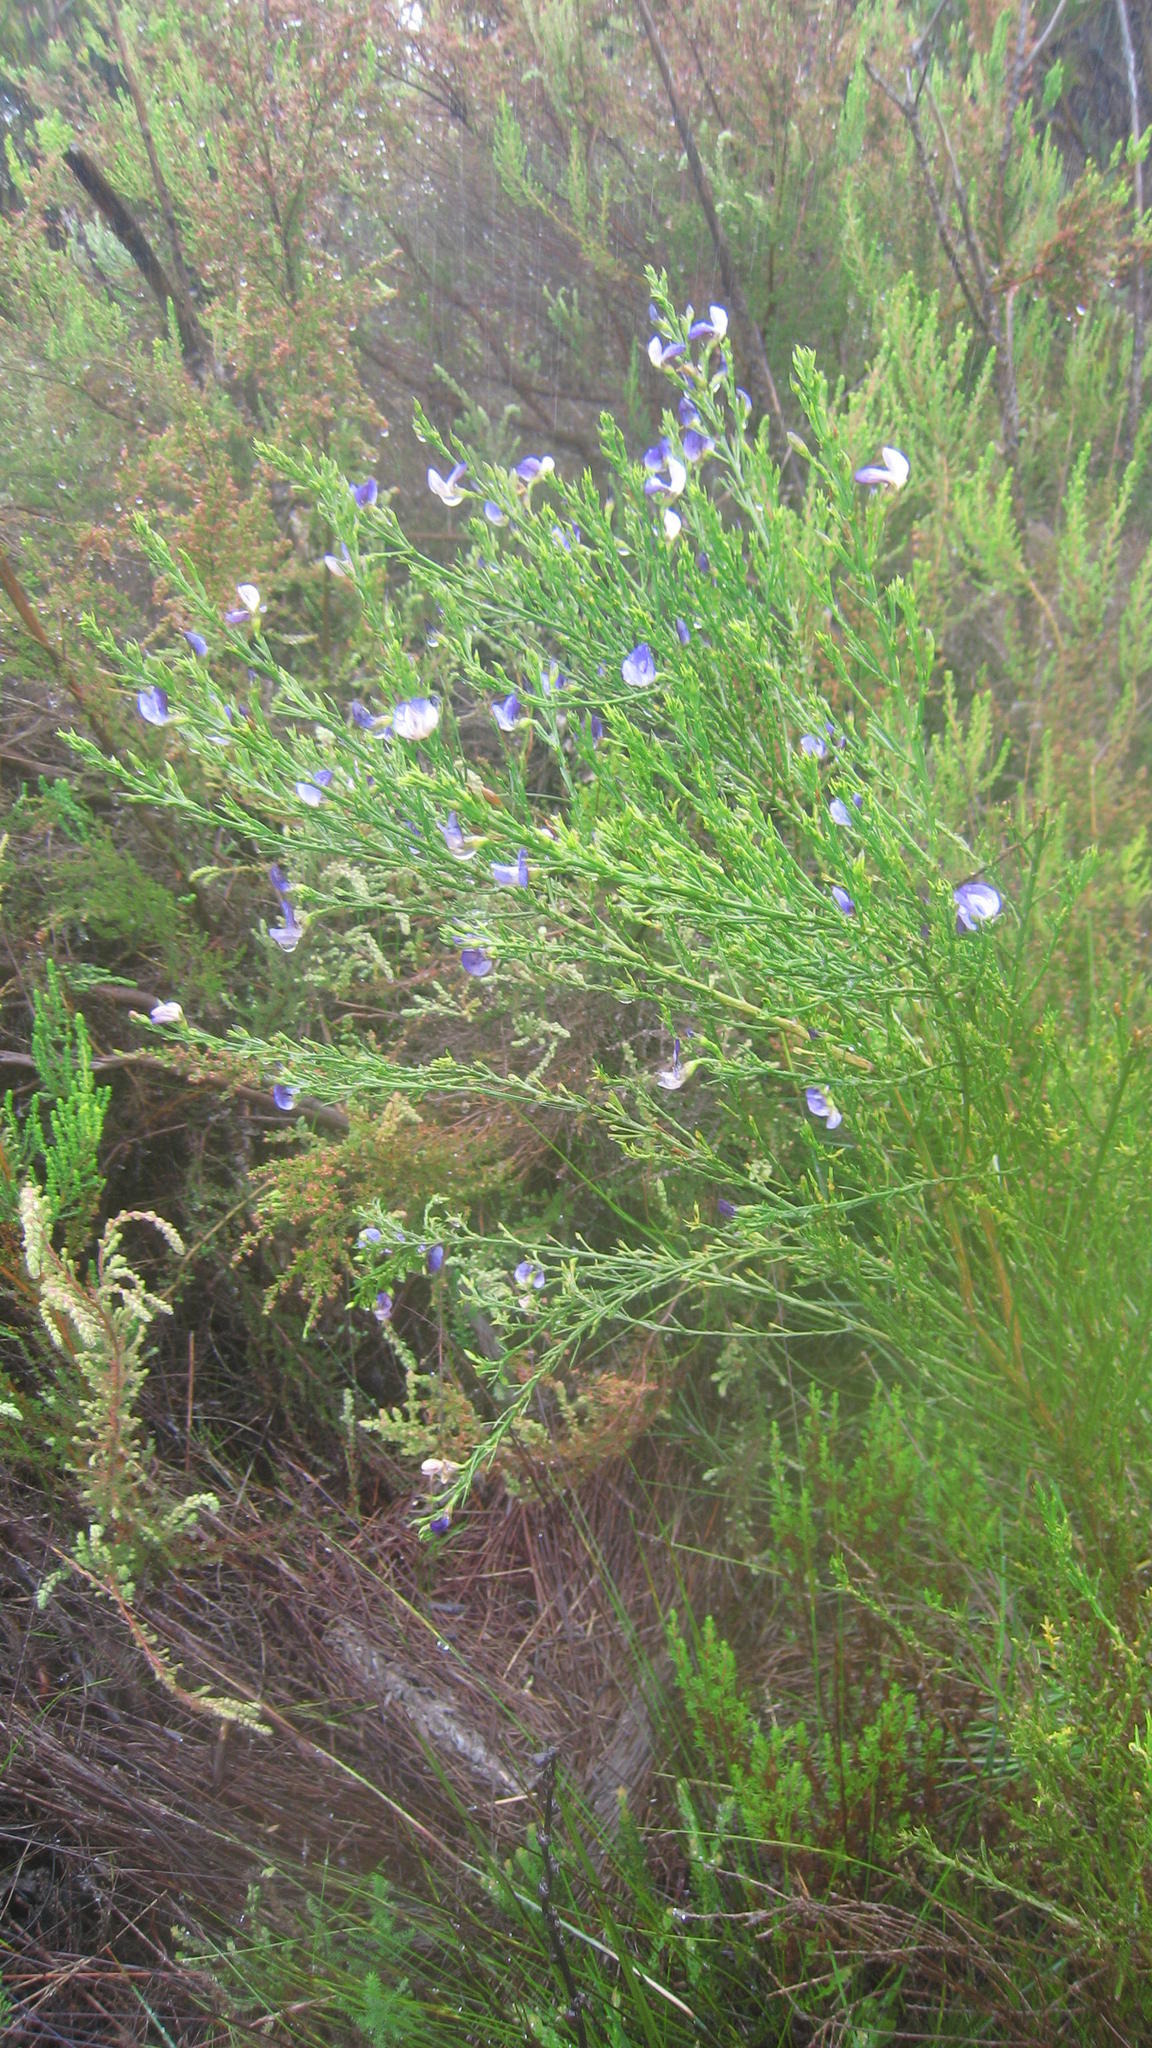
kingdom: Plantae
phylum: Tracheophyta
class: Magnoliopsida
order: Fabales
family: Fabaceae
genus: Psoralea
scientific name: Psoralea usitata
